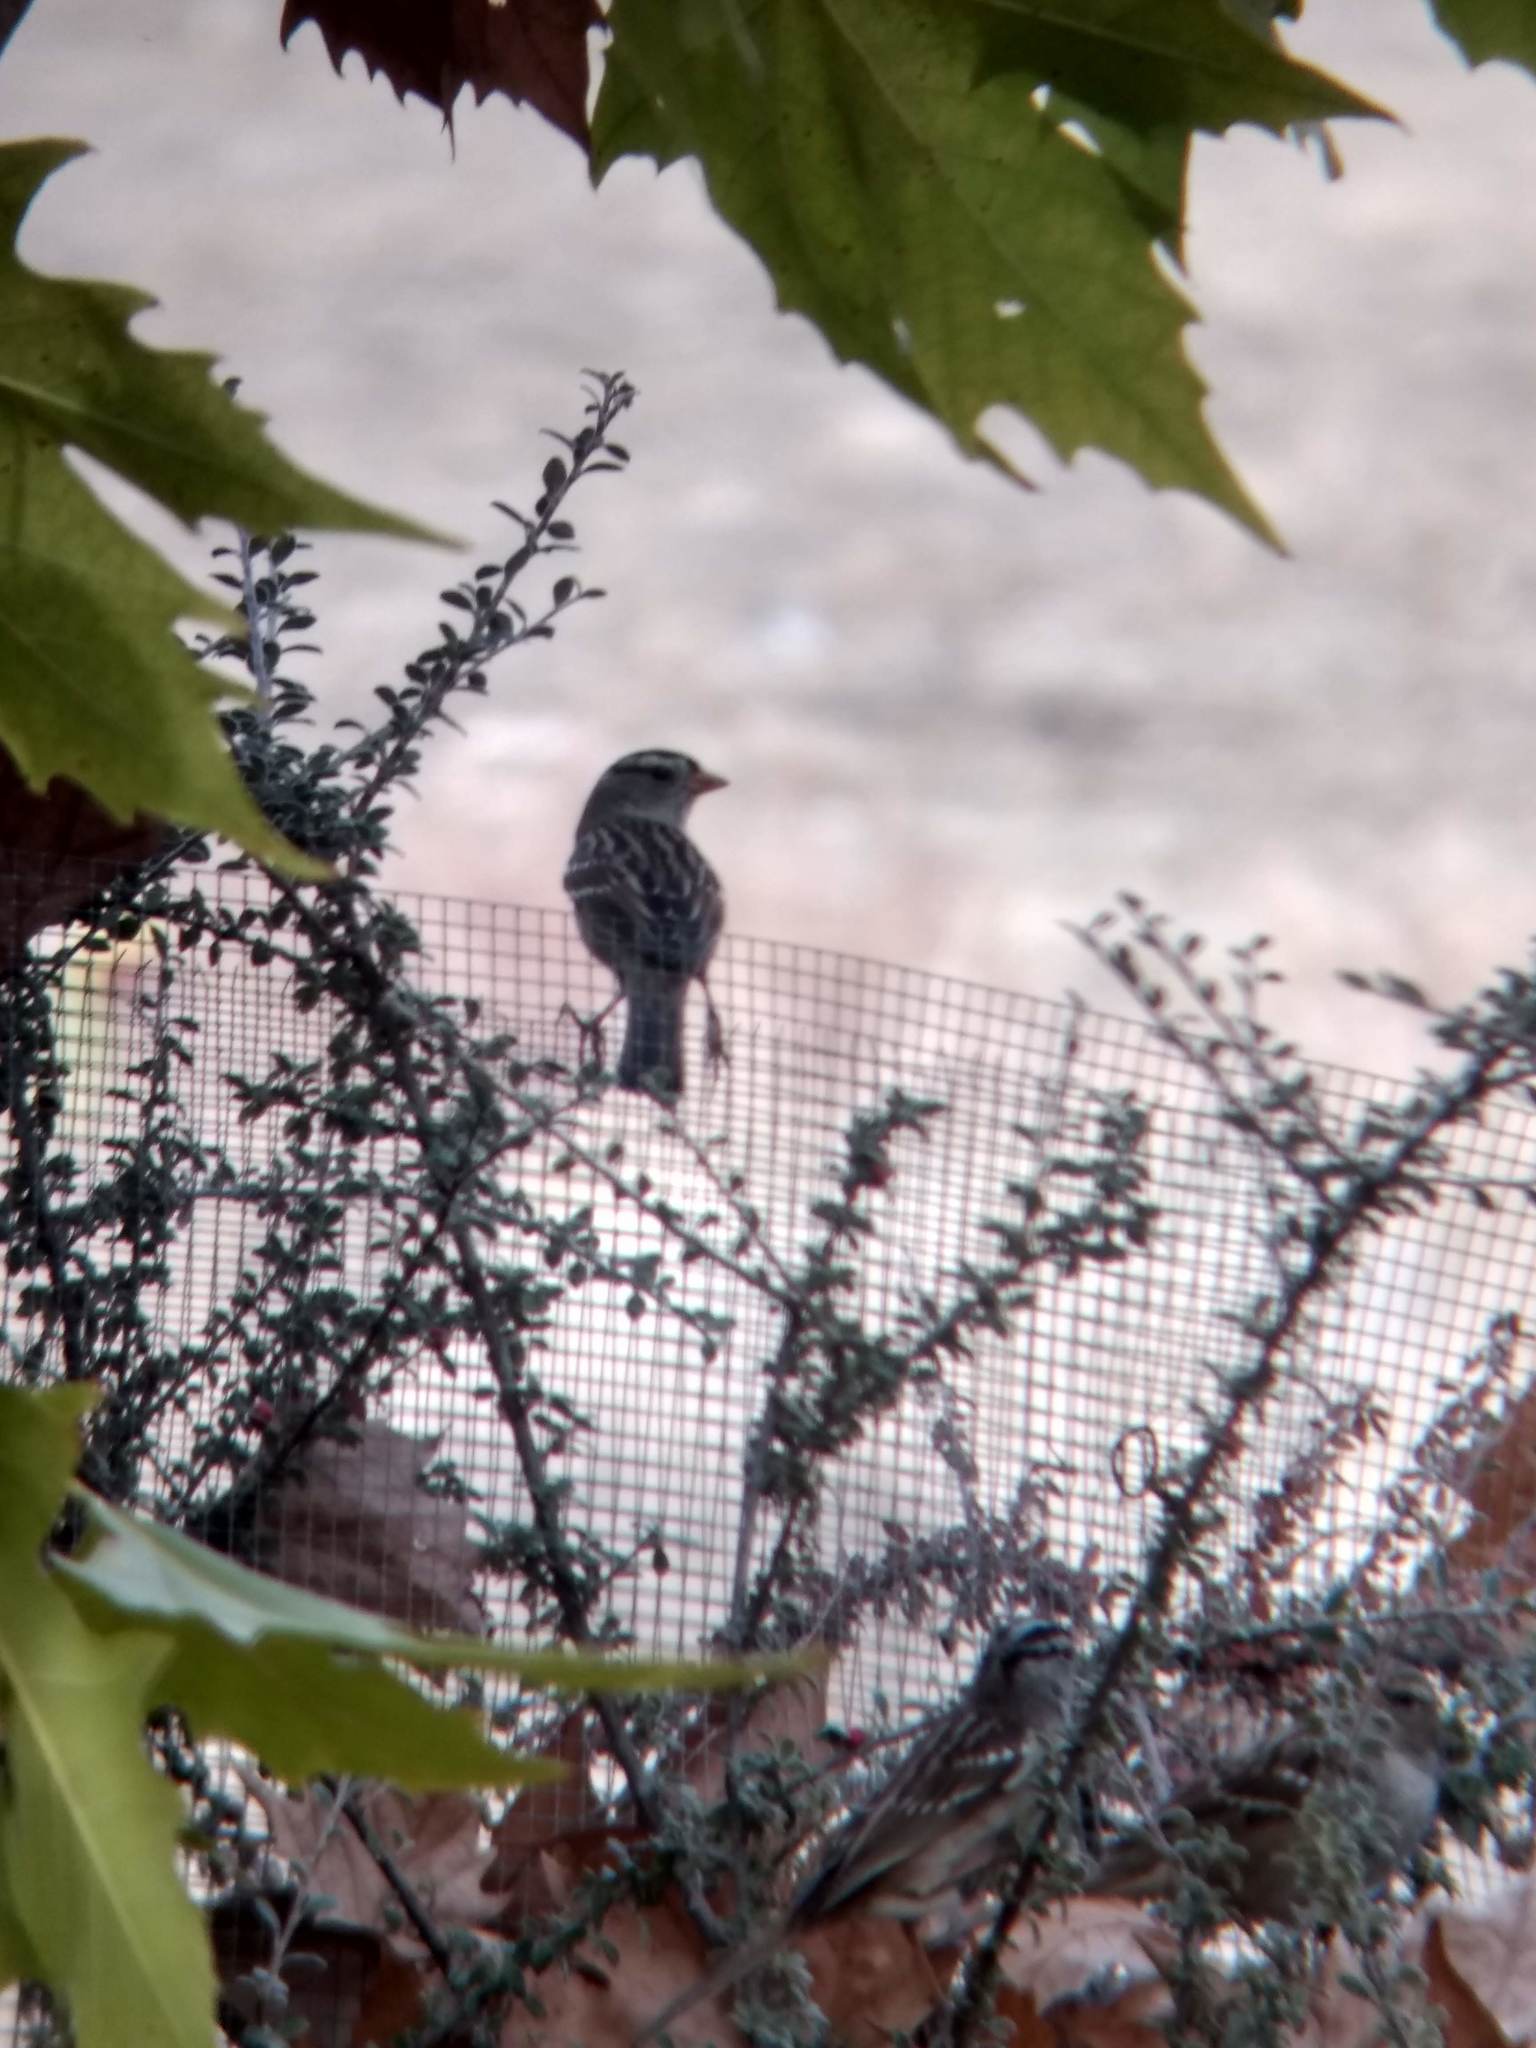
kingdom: Animalia
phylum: Chordata
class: Aves
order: Passeriformes
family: Passerellidae
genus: Zonotrichia
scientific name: Zonotrichia leucophrys
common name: White-crowned sparrow
